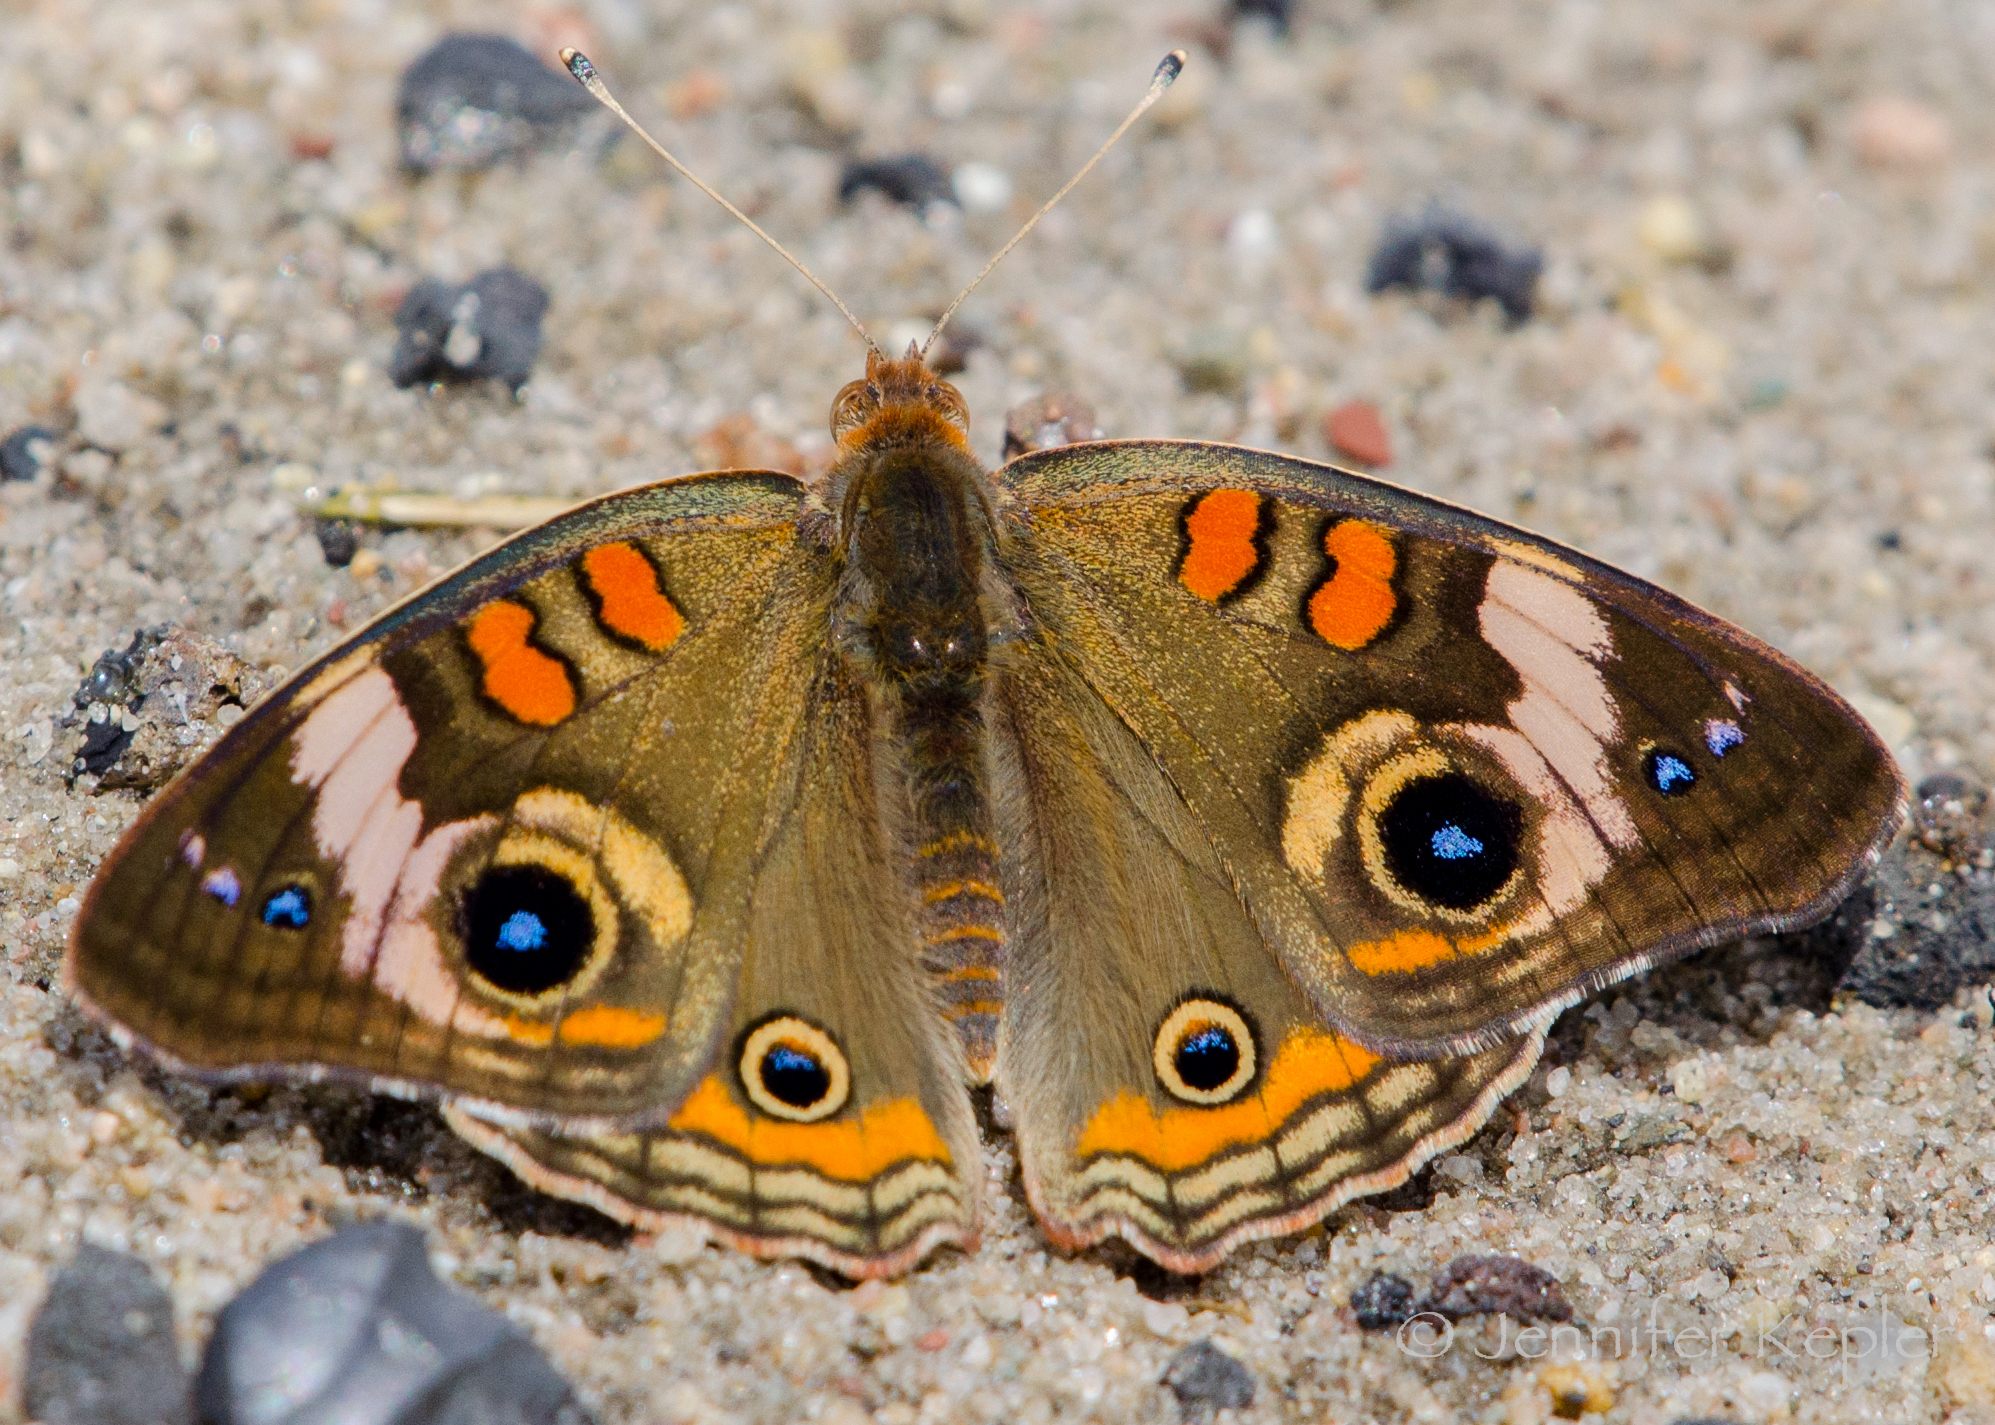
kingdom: Animalia
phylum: Arthropoda
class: Insecta
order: Lepidoptera
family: Nymphalidae
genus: Junonia
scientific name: Junonia coenia
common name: Common buckeye
